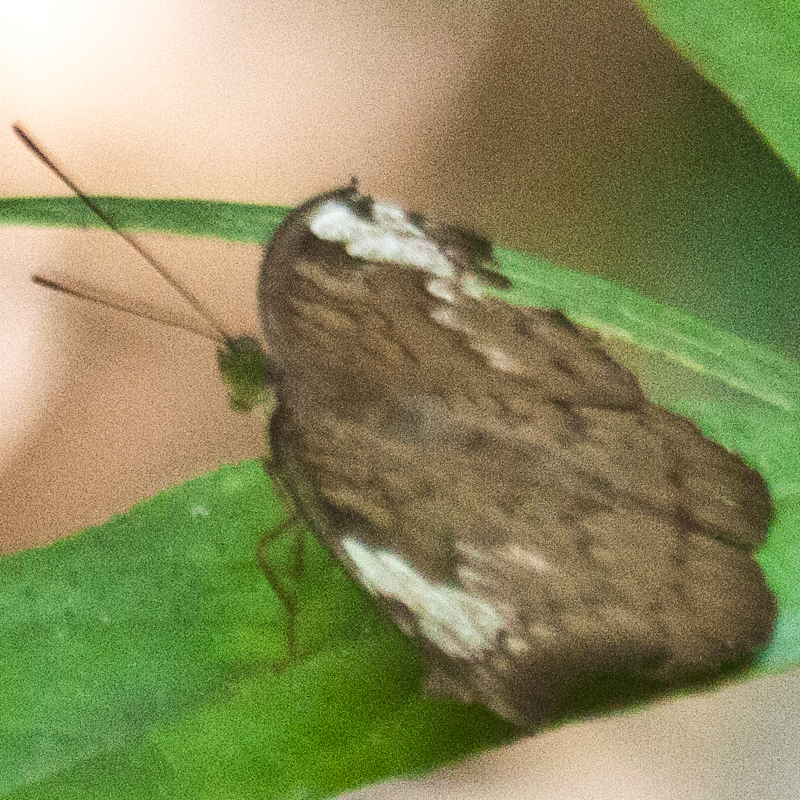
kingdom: Animalia
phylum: Arthropoda
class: Insecta
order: Lepidoptera
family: Nymphalidae
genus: Tanaecia
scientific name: Tanaecia julii
